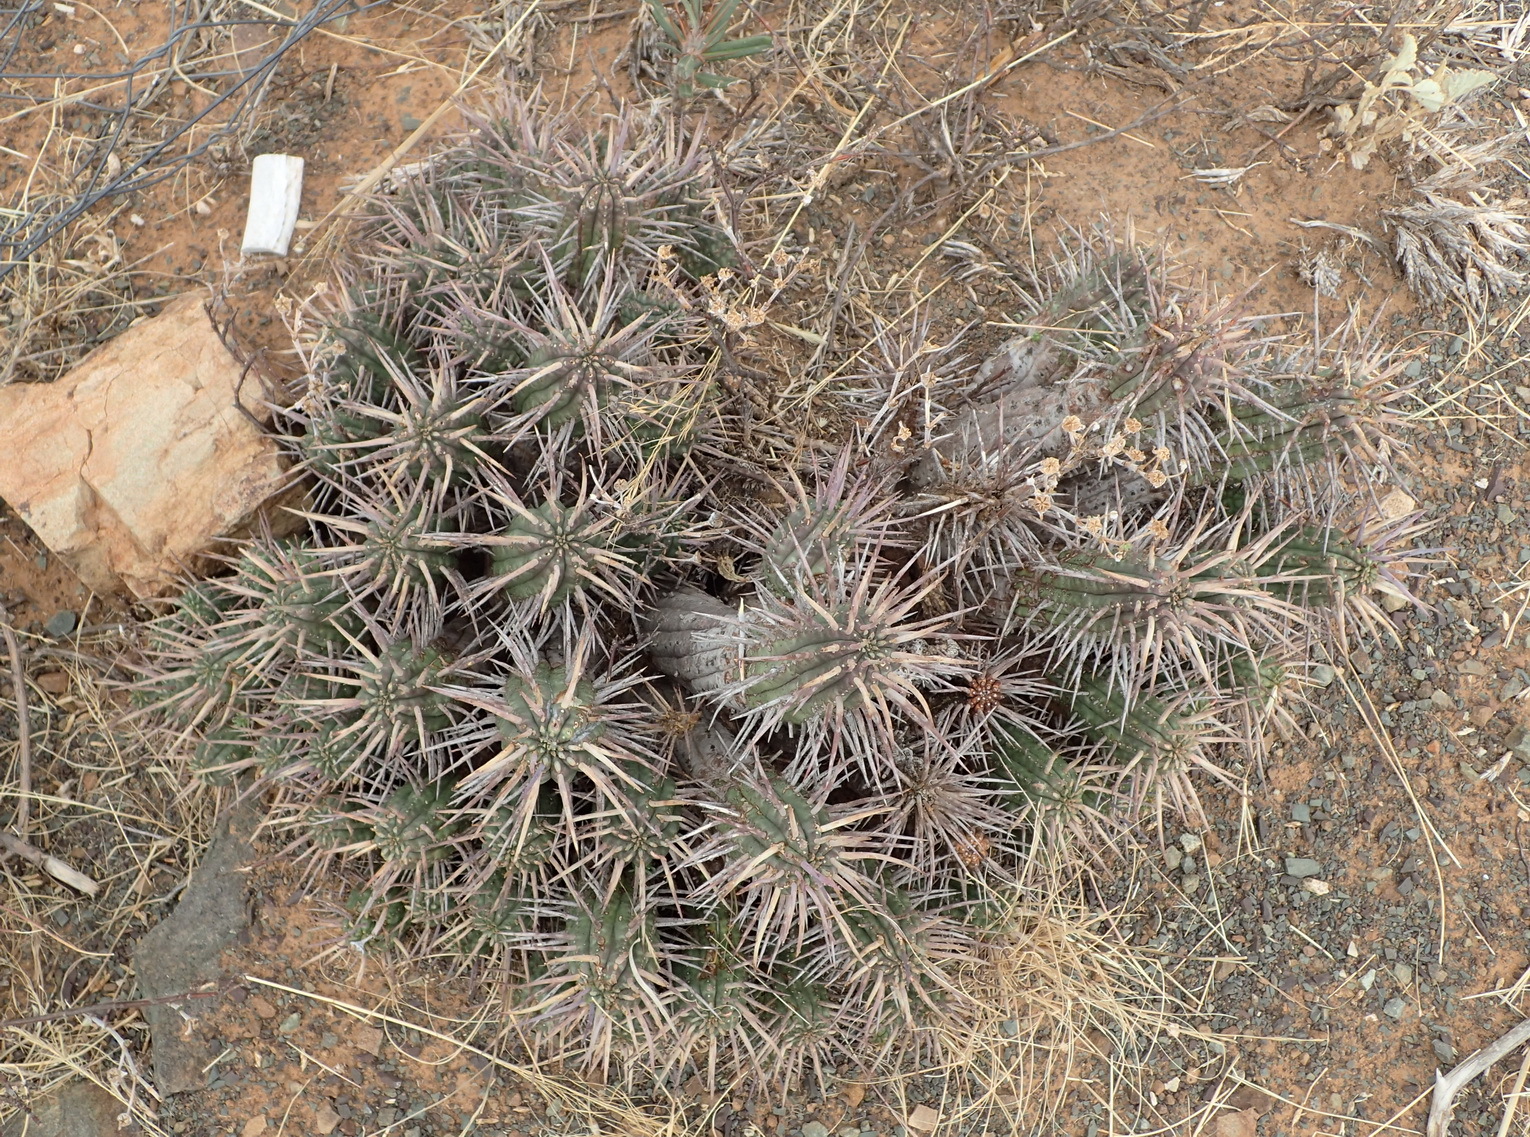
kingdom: Plantae
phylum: Tracheophyta
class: Magnoliopsida
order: Malpighiales
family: Euphorbiaceae
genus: Euphorbia
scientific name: Euphorbia ferox
